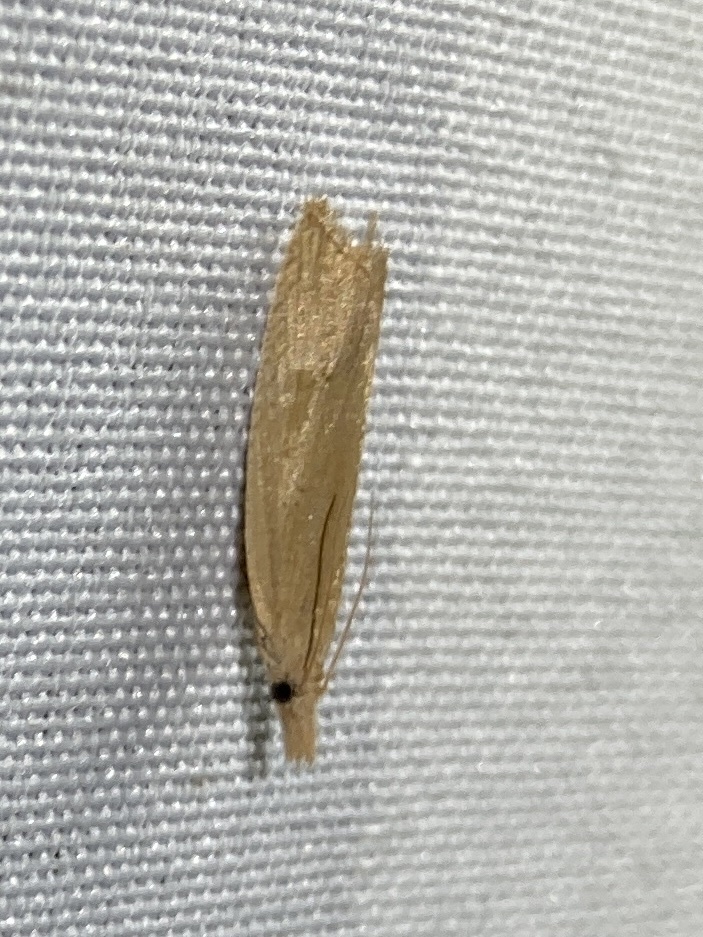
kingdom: Animalia
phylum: Arthropoda
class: Insecta
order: Lepidoptera
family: Tortricidae
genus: Bactra
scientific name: Bactra noteraula
